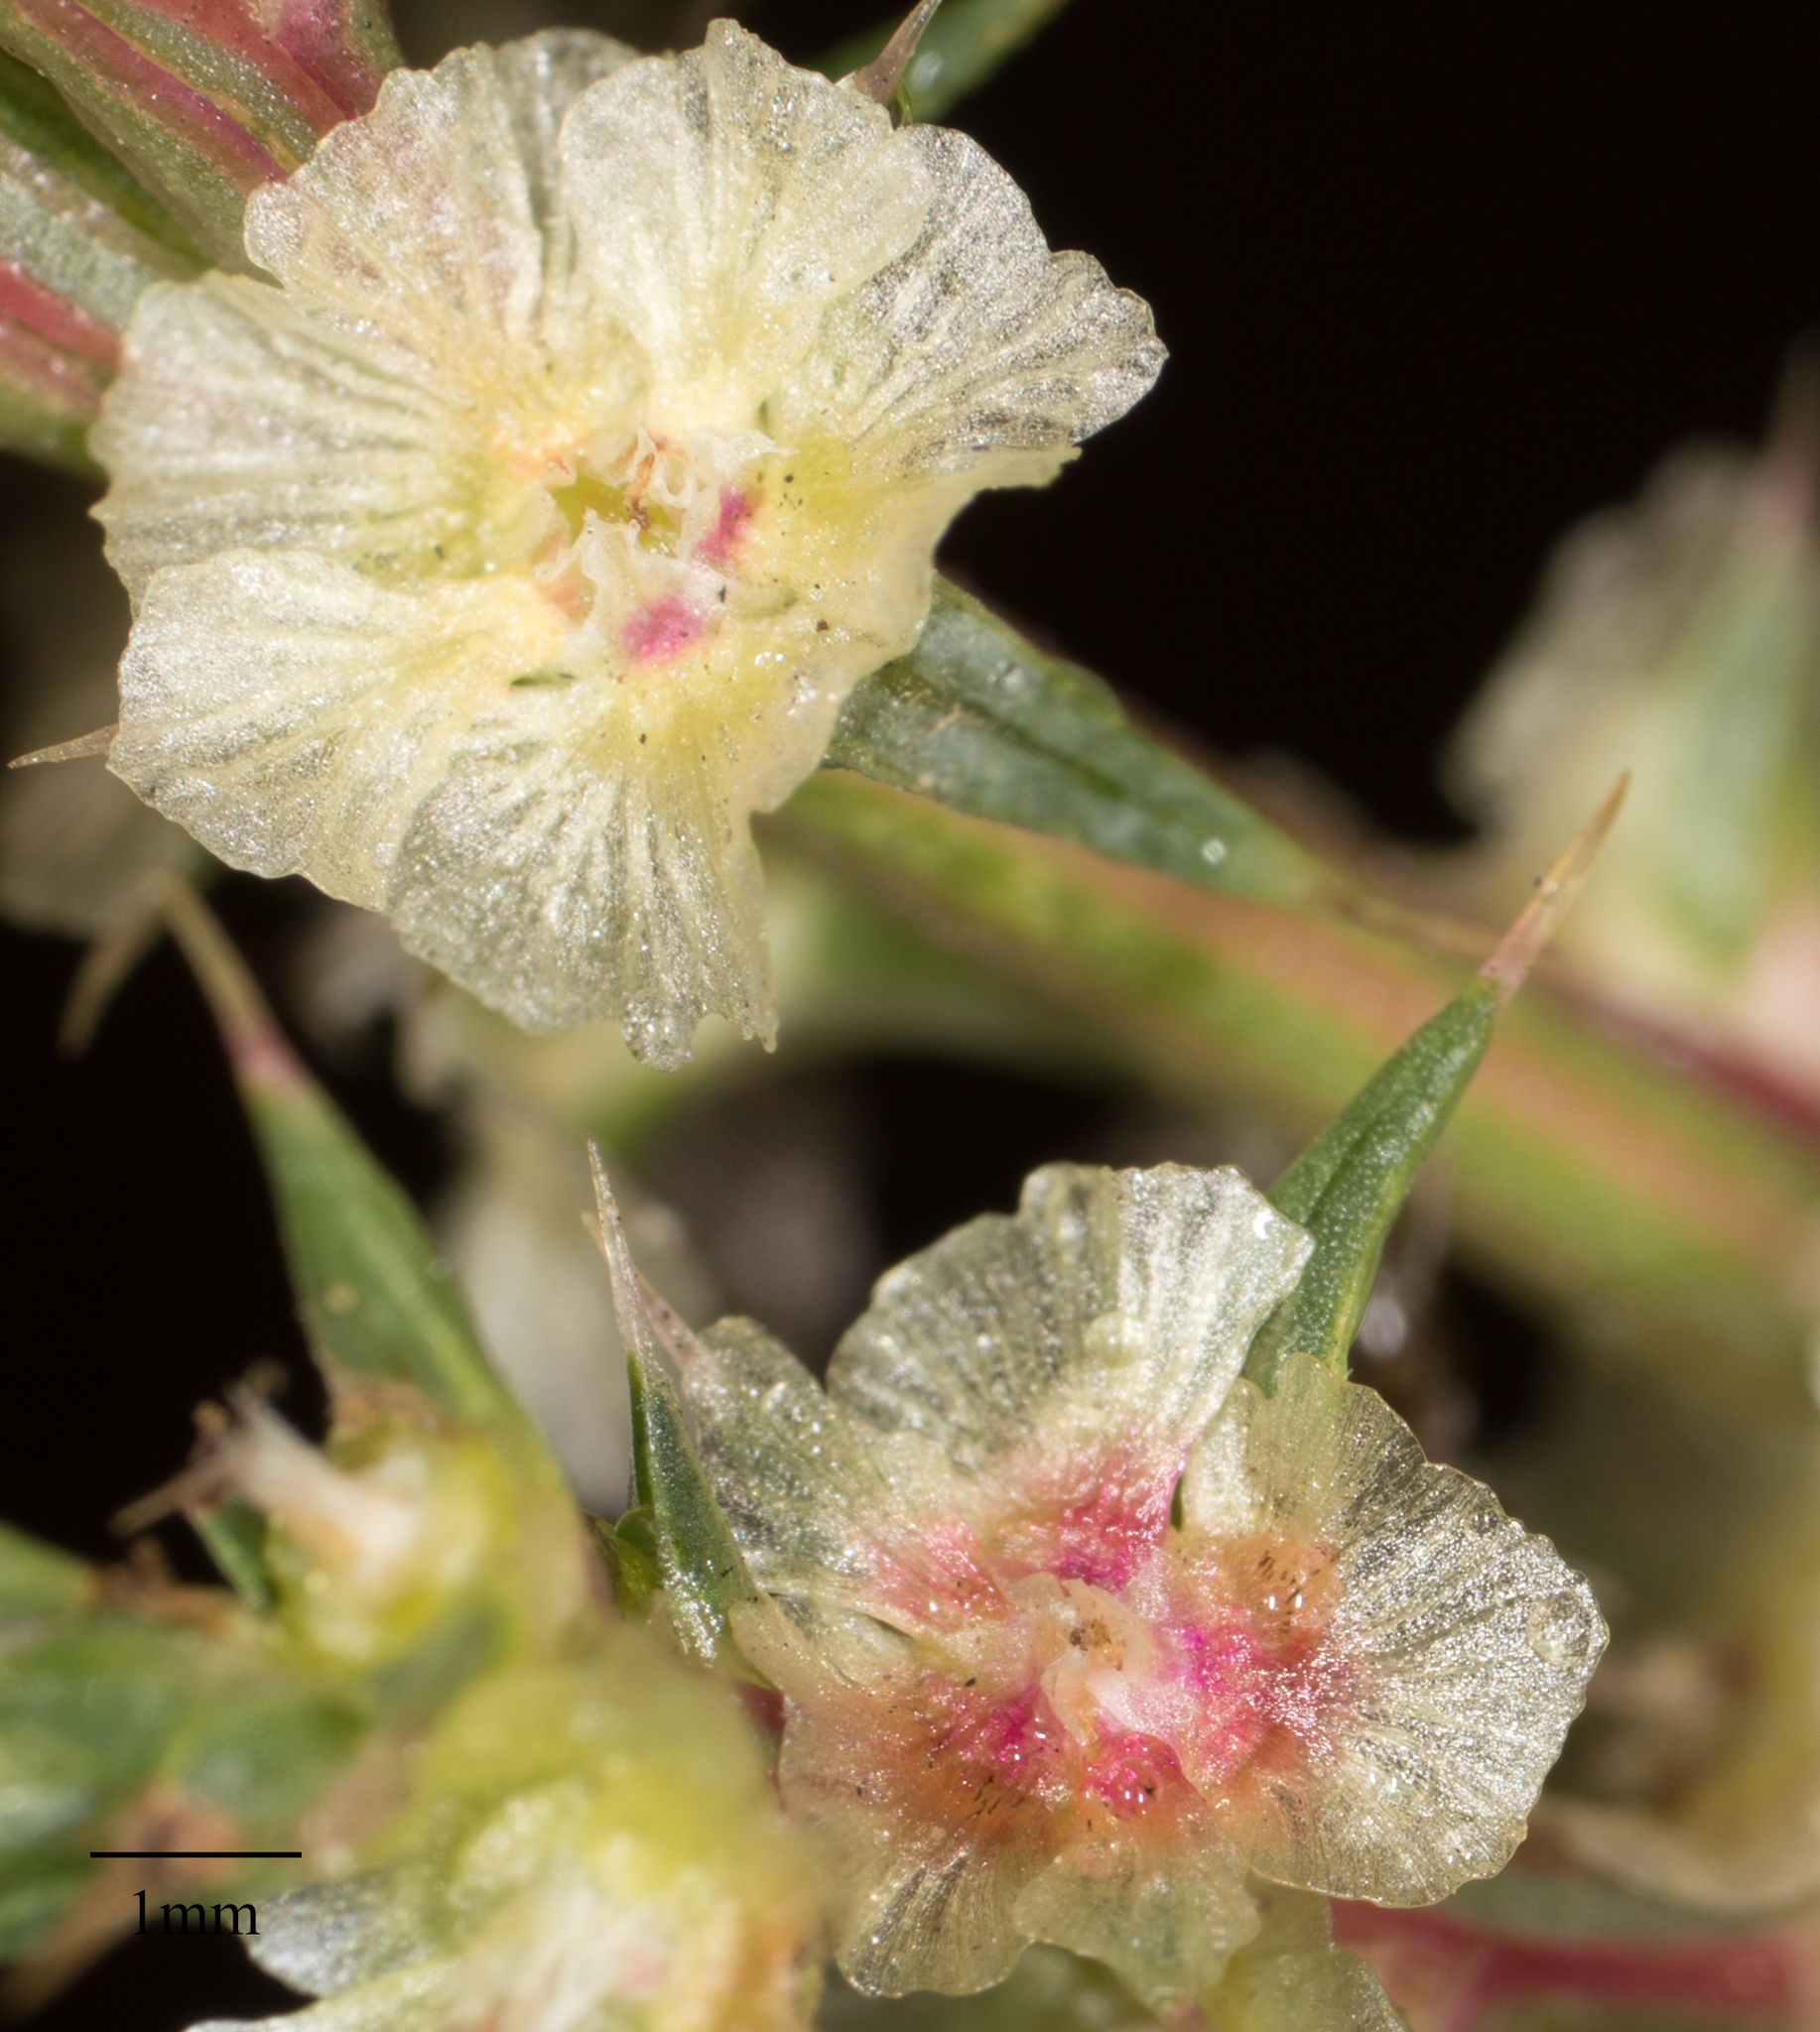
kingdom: Plantae
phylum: Tracheophyta
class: Magnoliopsida
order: Caryophyllales
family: Amaranthaceae
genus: Salsola
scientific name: Salsola australis
